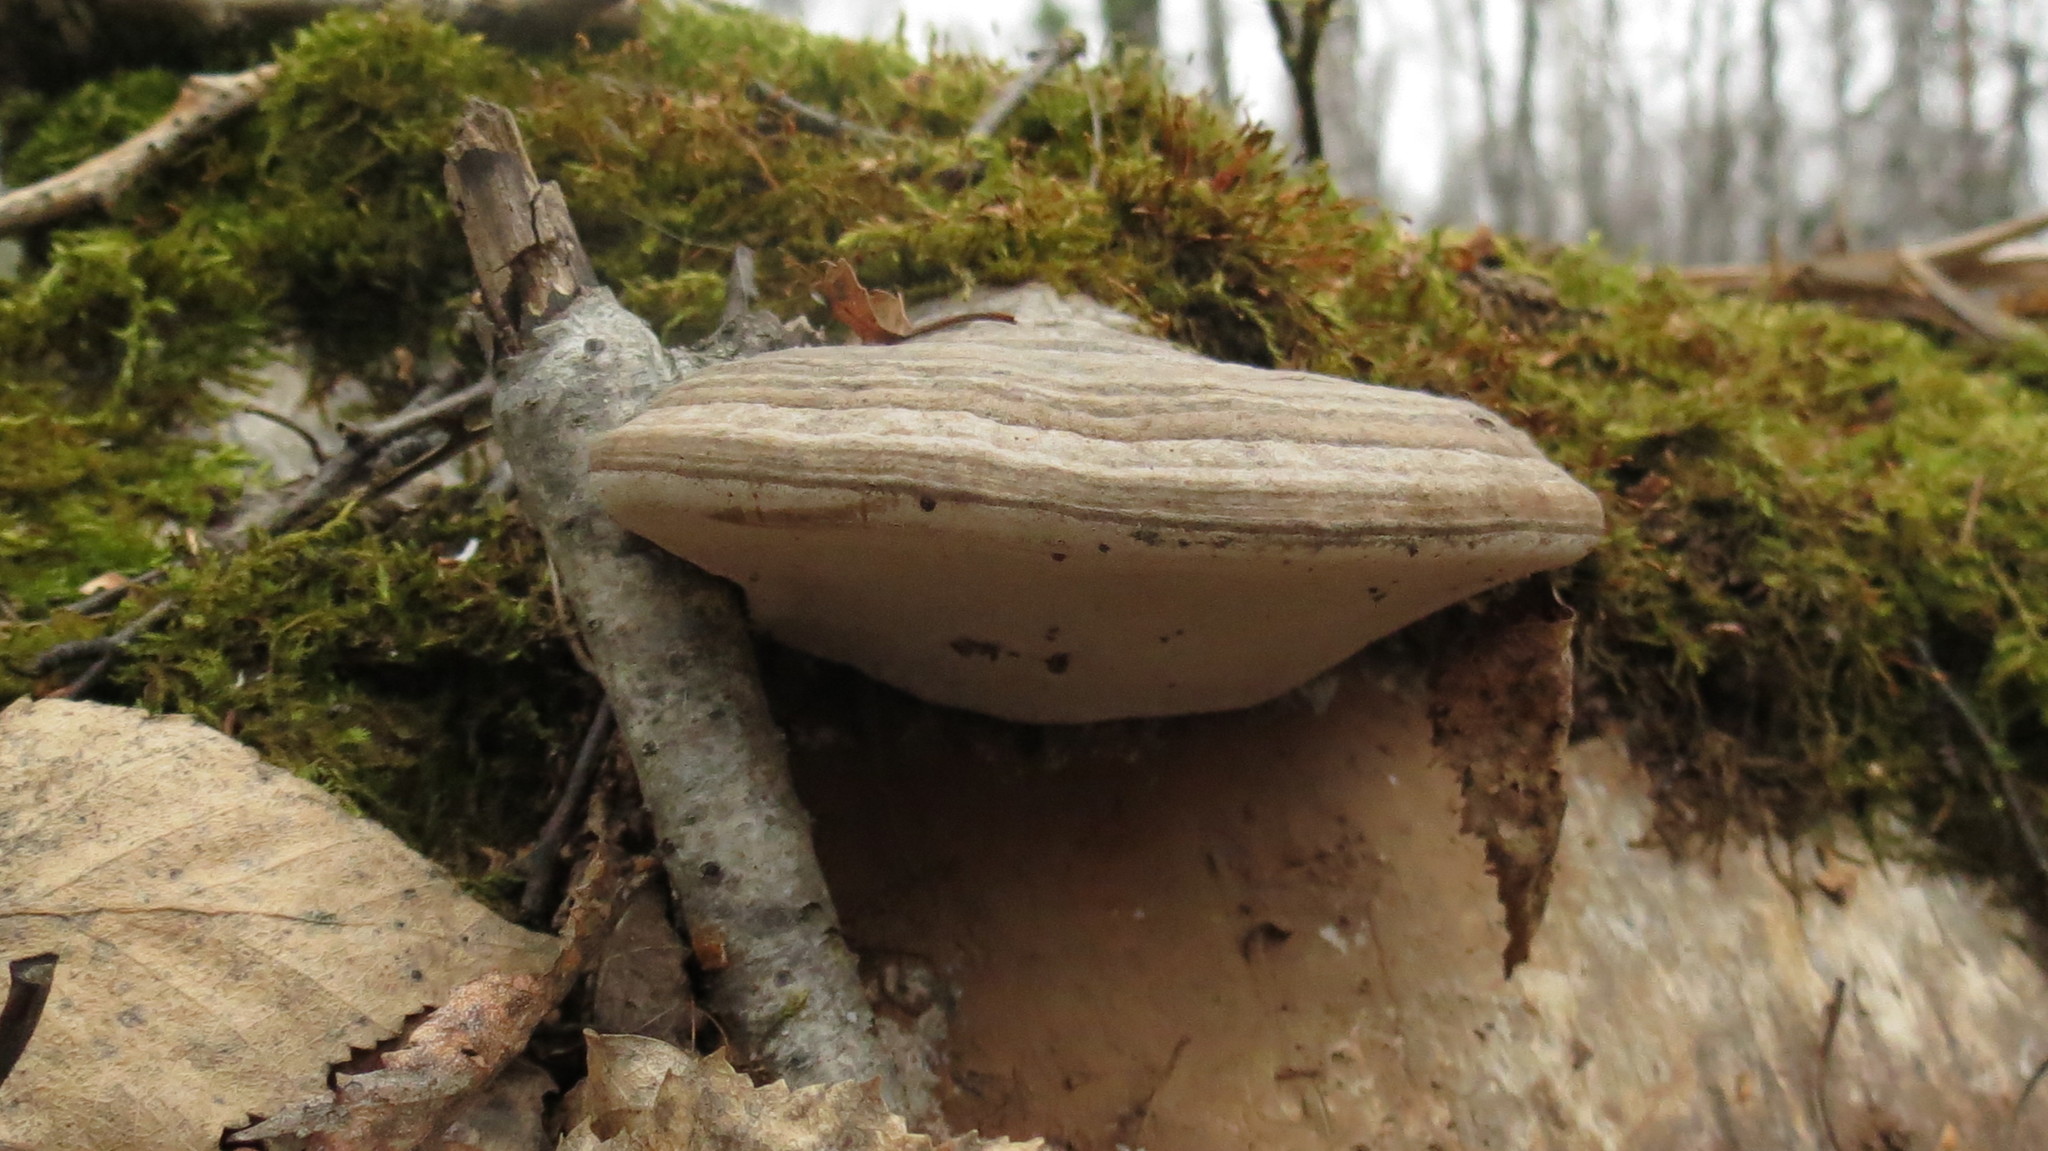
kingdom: Fungi
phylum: Basidiomycota
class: Agaricomycetes
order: Polyporales
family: Polyporaceae
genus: Ganoderma
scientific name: Ganoderma applanatum
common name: Artist's bracket
